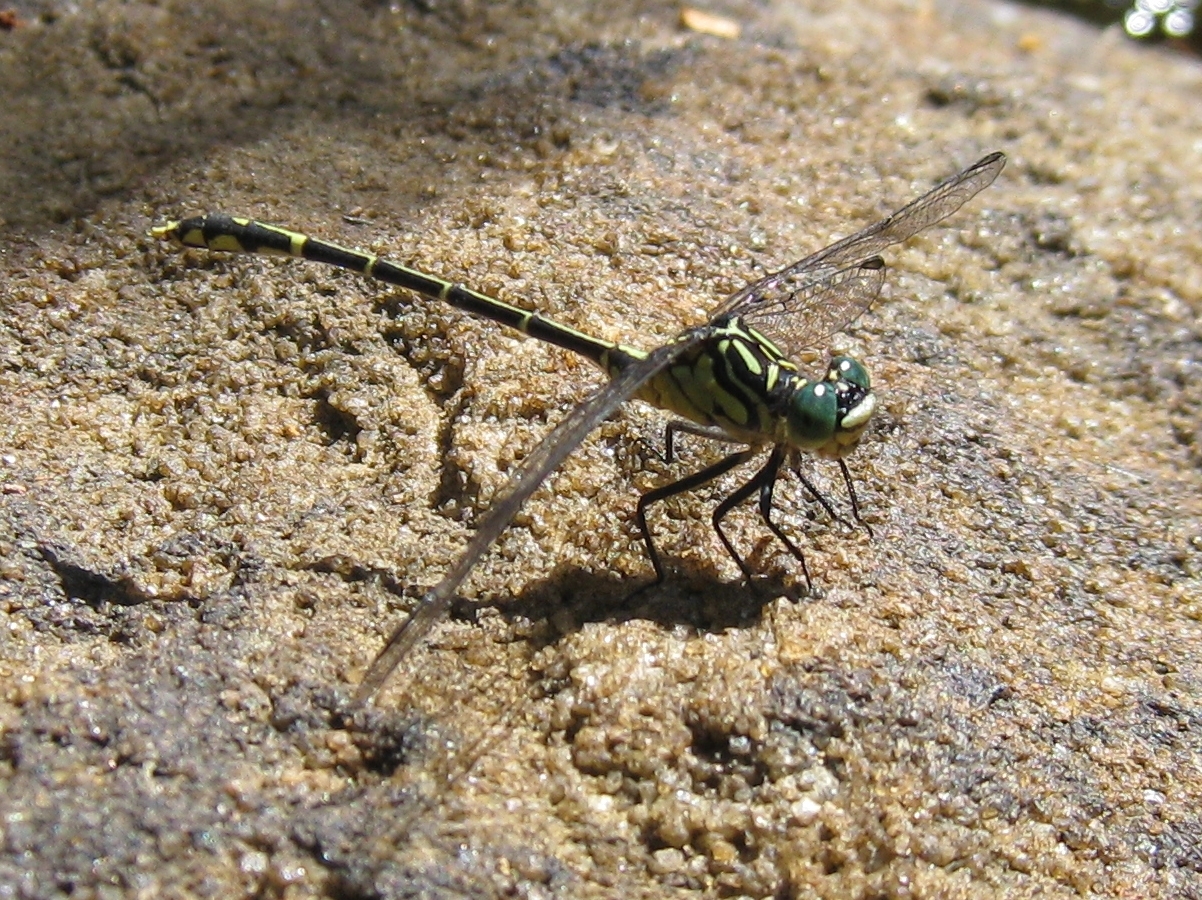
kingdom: Animalia
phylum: Arthropoda
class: Insecta
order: Odonata
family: Gomphidae
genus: Austrogomphus
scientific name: Austrogomphus ochraceus
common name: Jade hunter
